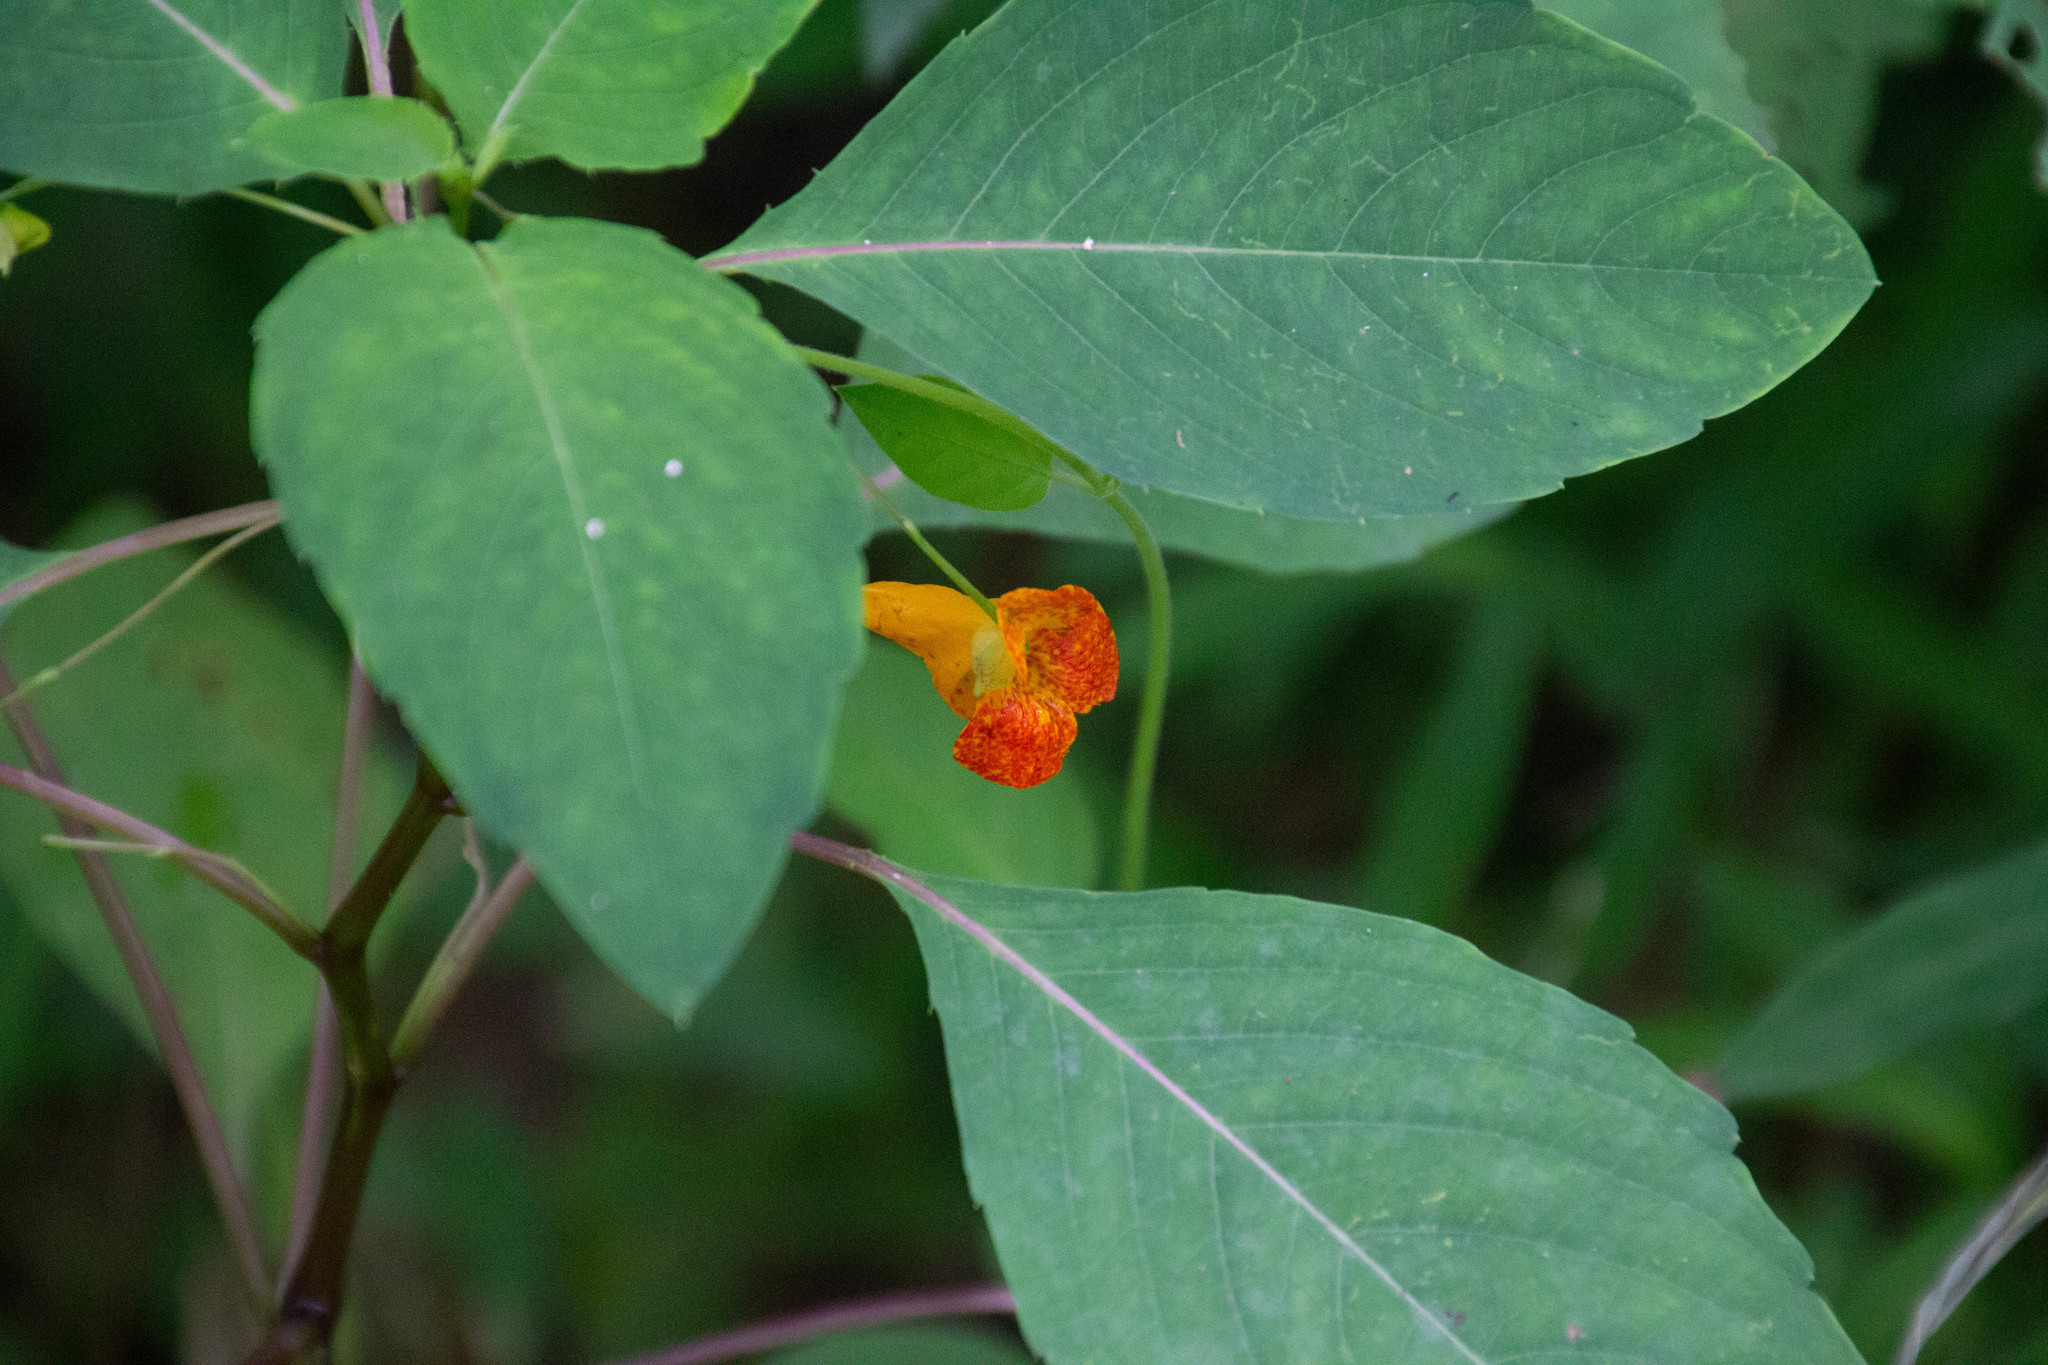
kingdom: Plantae
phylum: Tracheophyta
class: Magnoliopsida
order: Ericales
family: Balsaminaceae
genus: Impatiens
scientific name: Impatiens capensis
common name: Orange balsam
